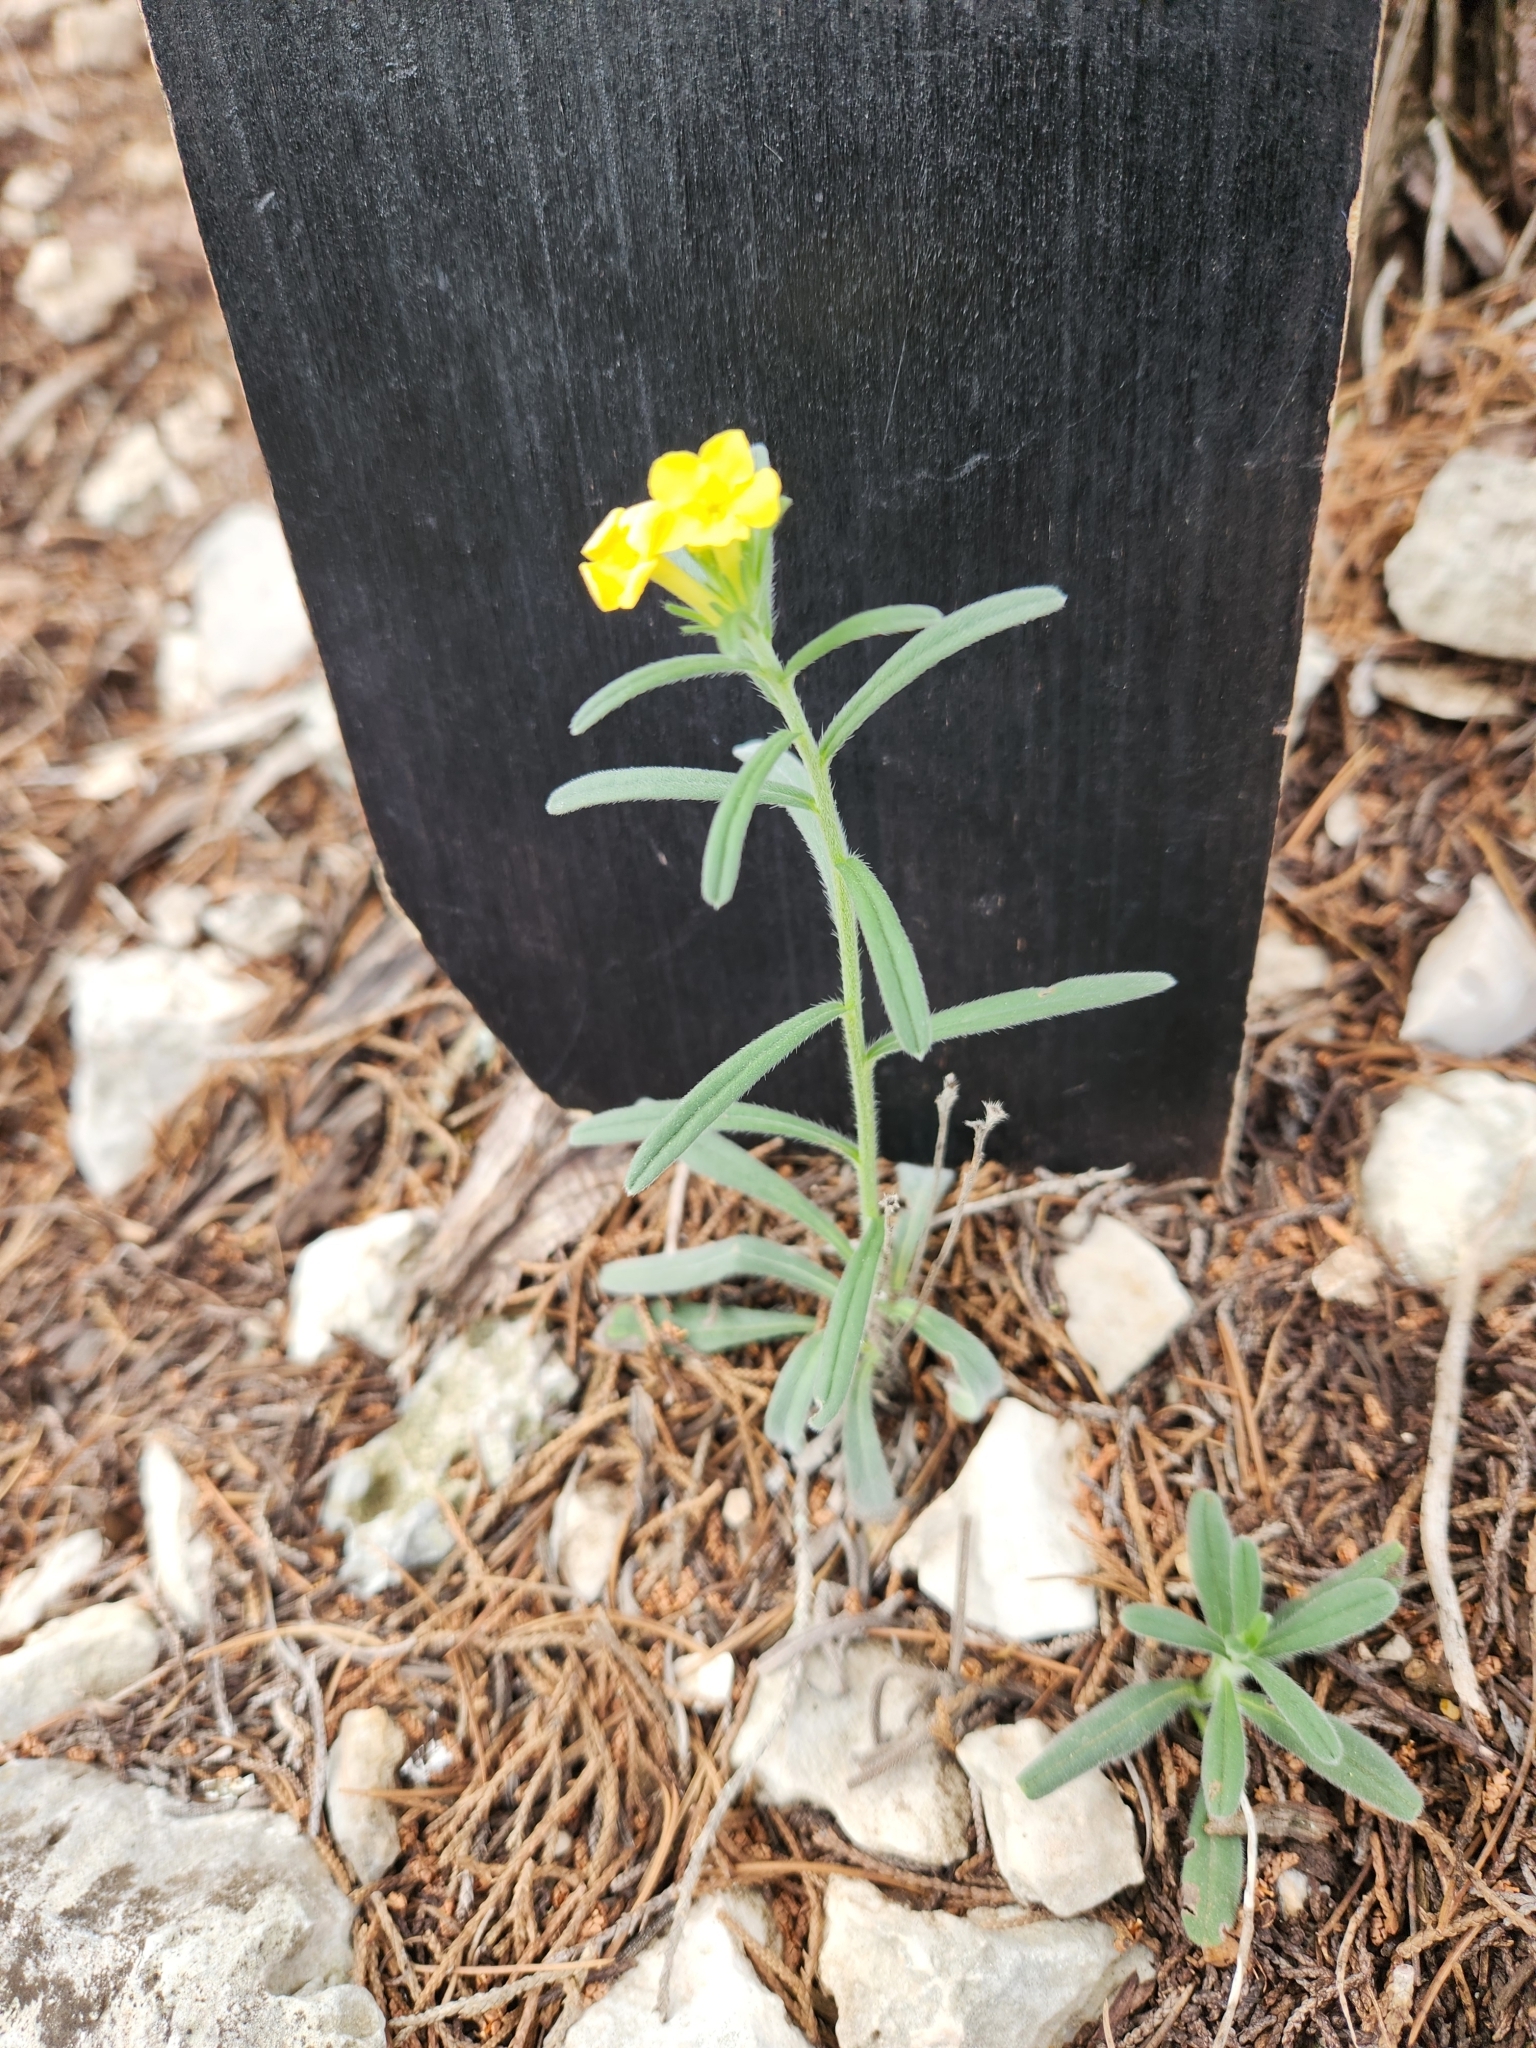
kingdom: Plantae
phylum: Tracheophyta
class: Magnoliopsida
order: Boraginales
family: Boraginaceae
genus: Lithospermum
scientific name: Lithospermum mirabile
